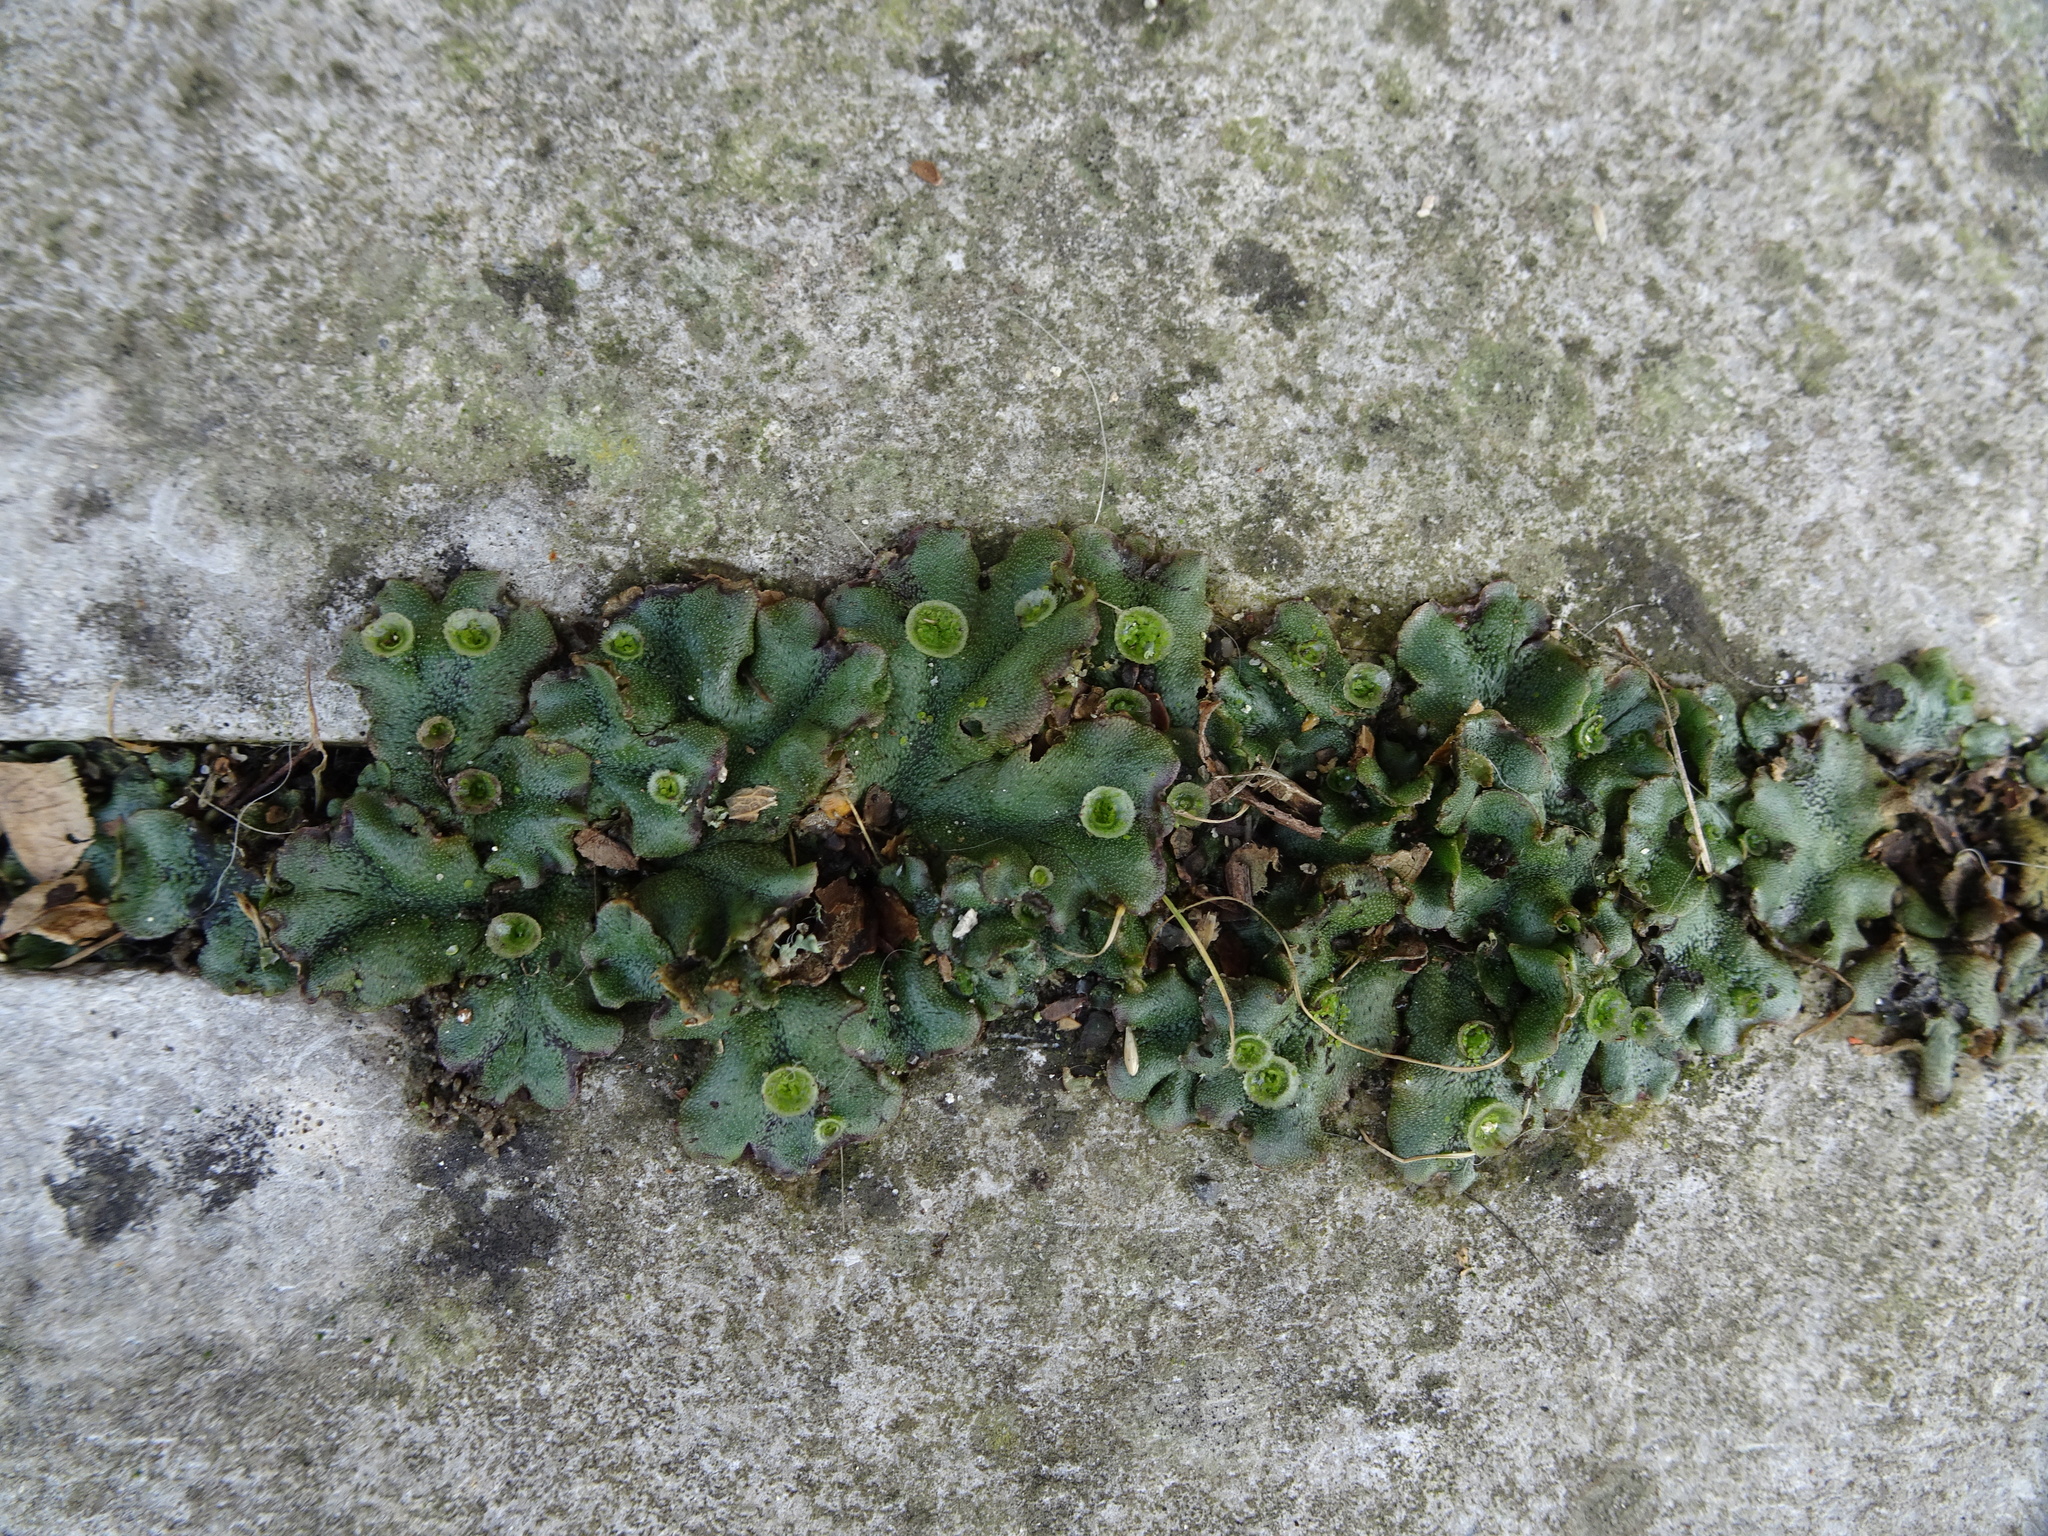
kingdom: Plantae
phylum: Marchantiophyta
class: Marchantiopsida
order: Marchantiales
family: Marchantiaceae
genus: Marchantia
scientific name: Marchantia polymorpha
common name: Common liverwort
